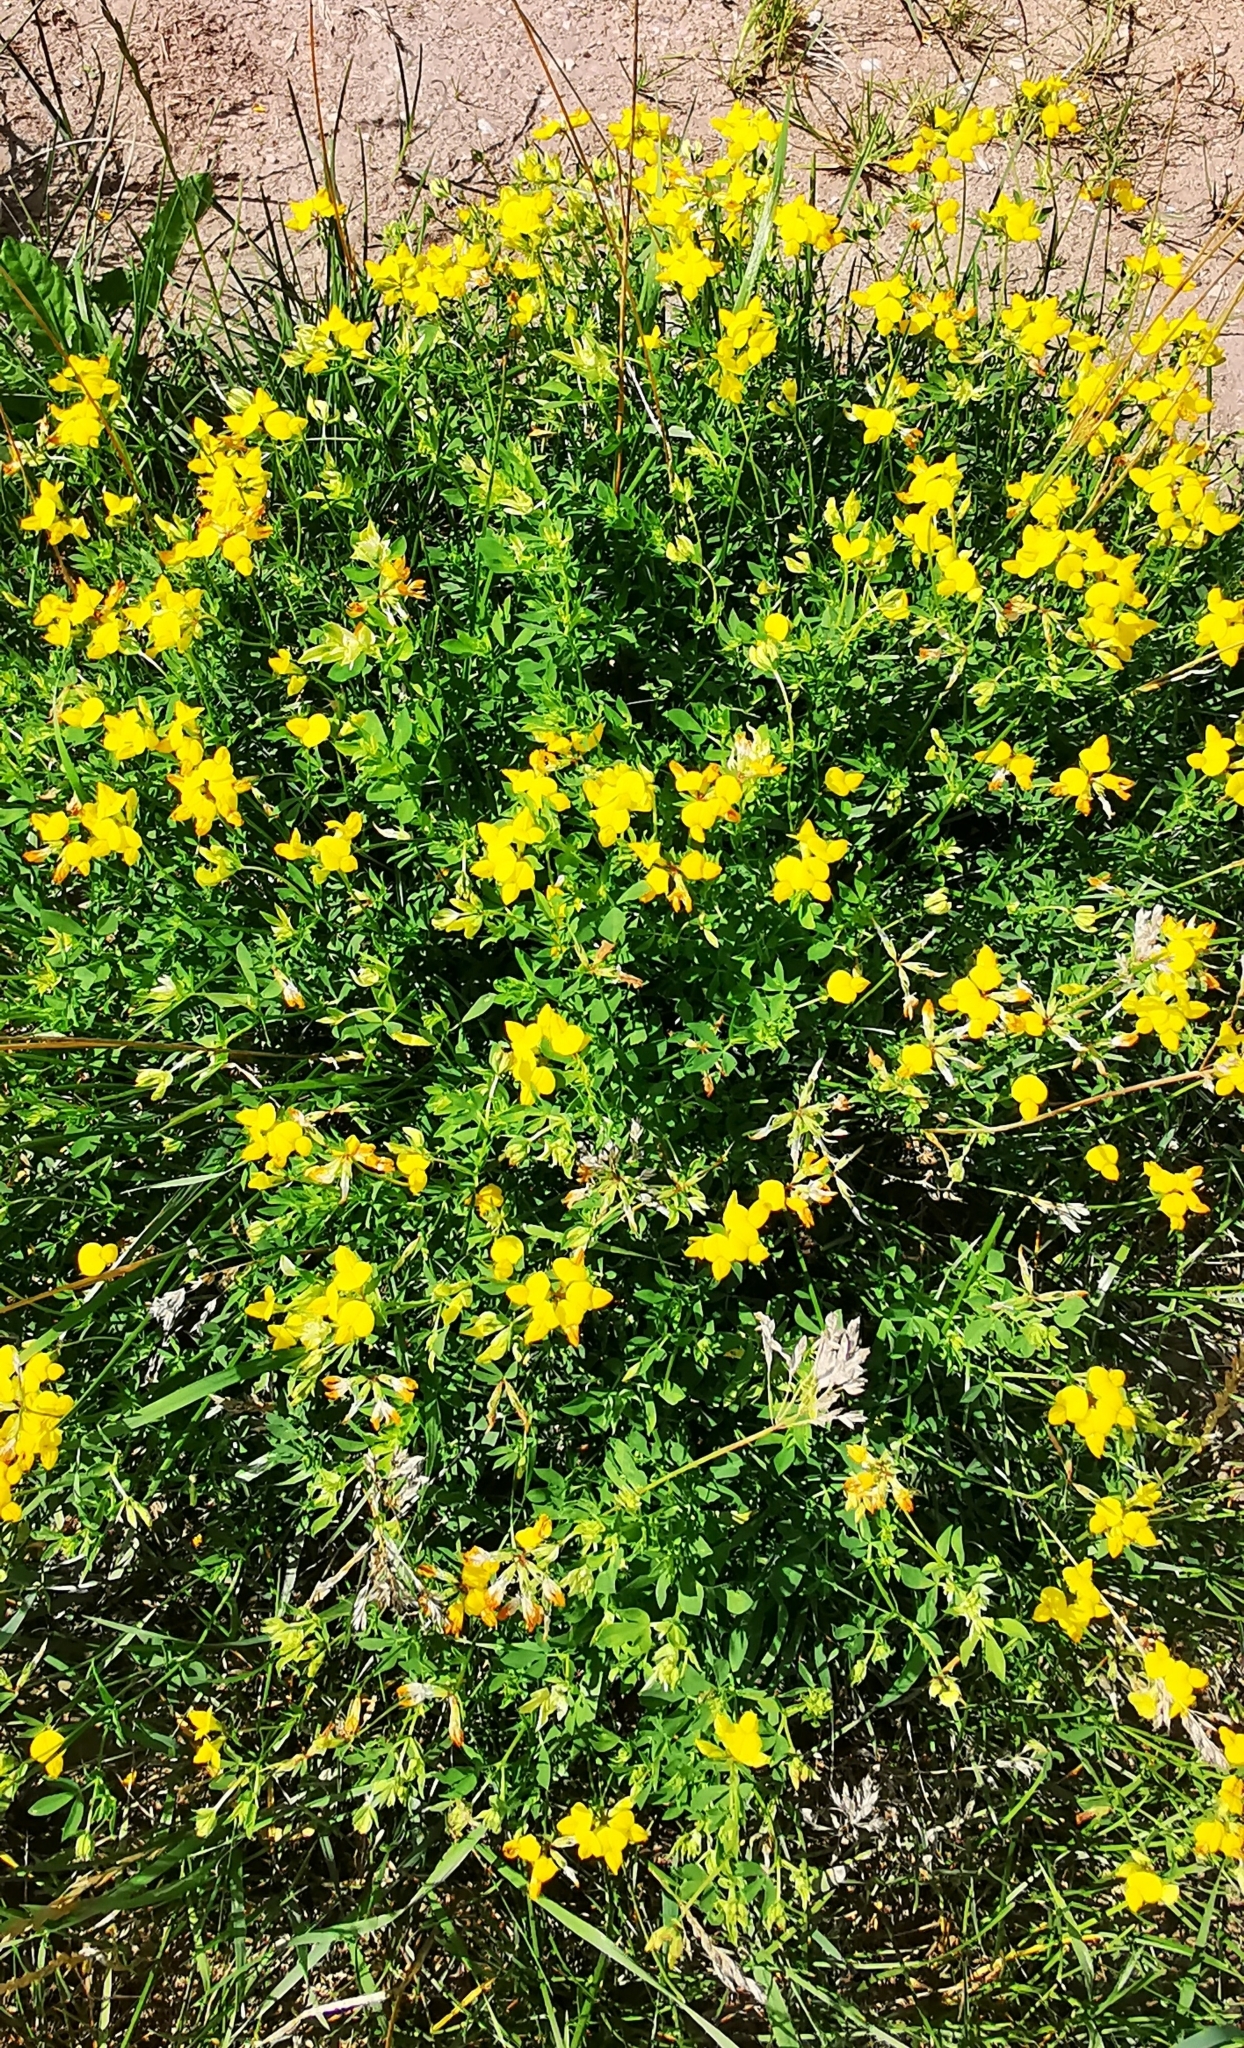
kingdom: Plantae
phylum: Tracheophyta
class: Magnoliopsida
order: Fabales
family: Fabaceae
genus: Lotus
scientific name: Lotus corniculatus
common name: Common bird's-foot-trefoil
